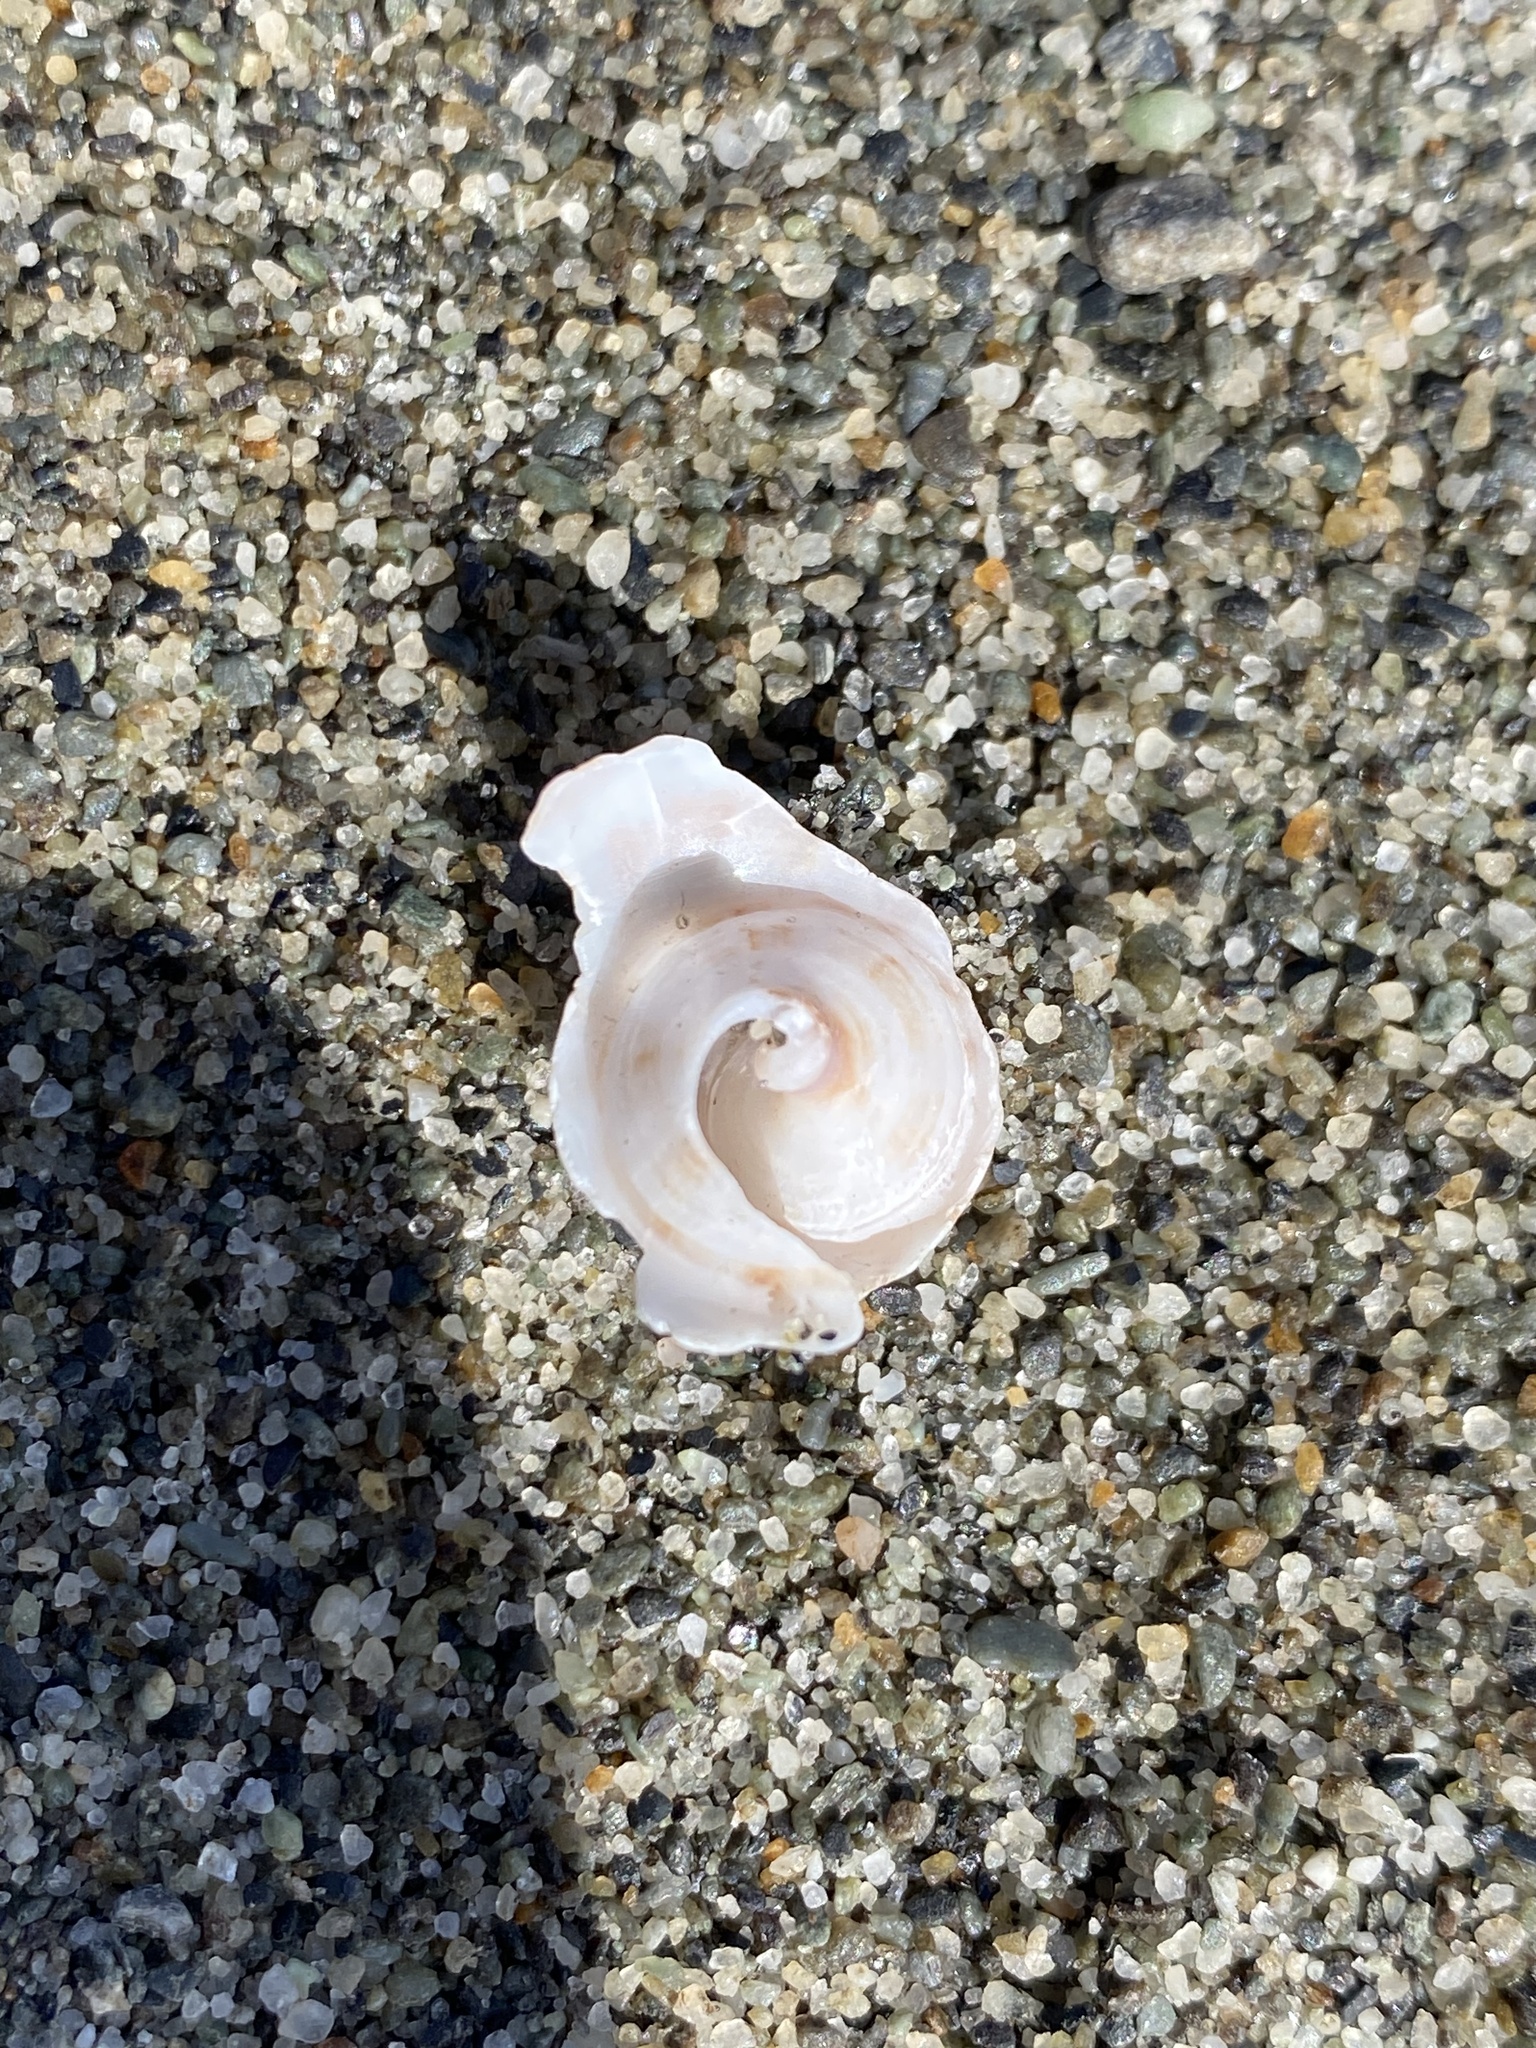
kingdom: Animalia
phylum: Mollusca
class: Gastropoda
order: Neogastropoda
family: Prosiphonidae
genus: Austrofusus
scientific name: Austrofusus glans
